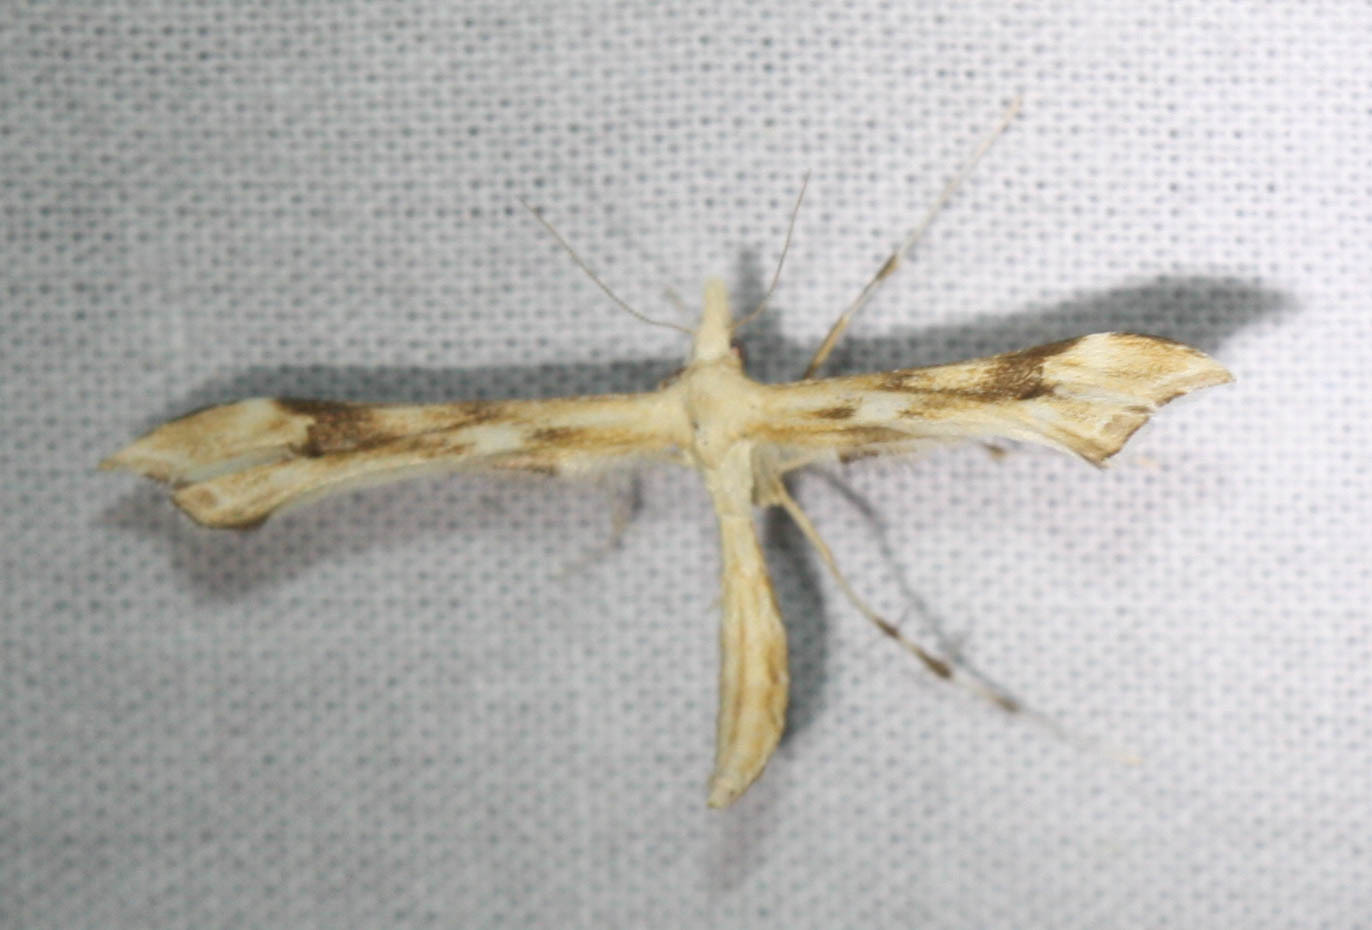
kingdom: Animalia
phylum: Arthropoda
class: Insecta
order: Lepidoptera
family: Pterophoridae
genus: Gillmeria
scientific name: Gillmeria ochrodactyla
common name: Tansy plume
